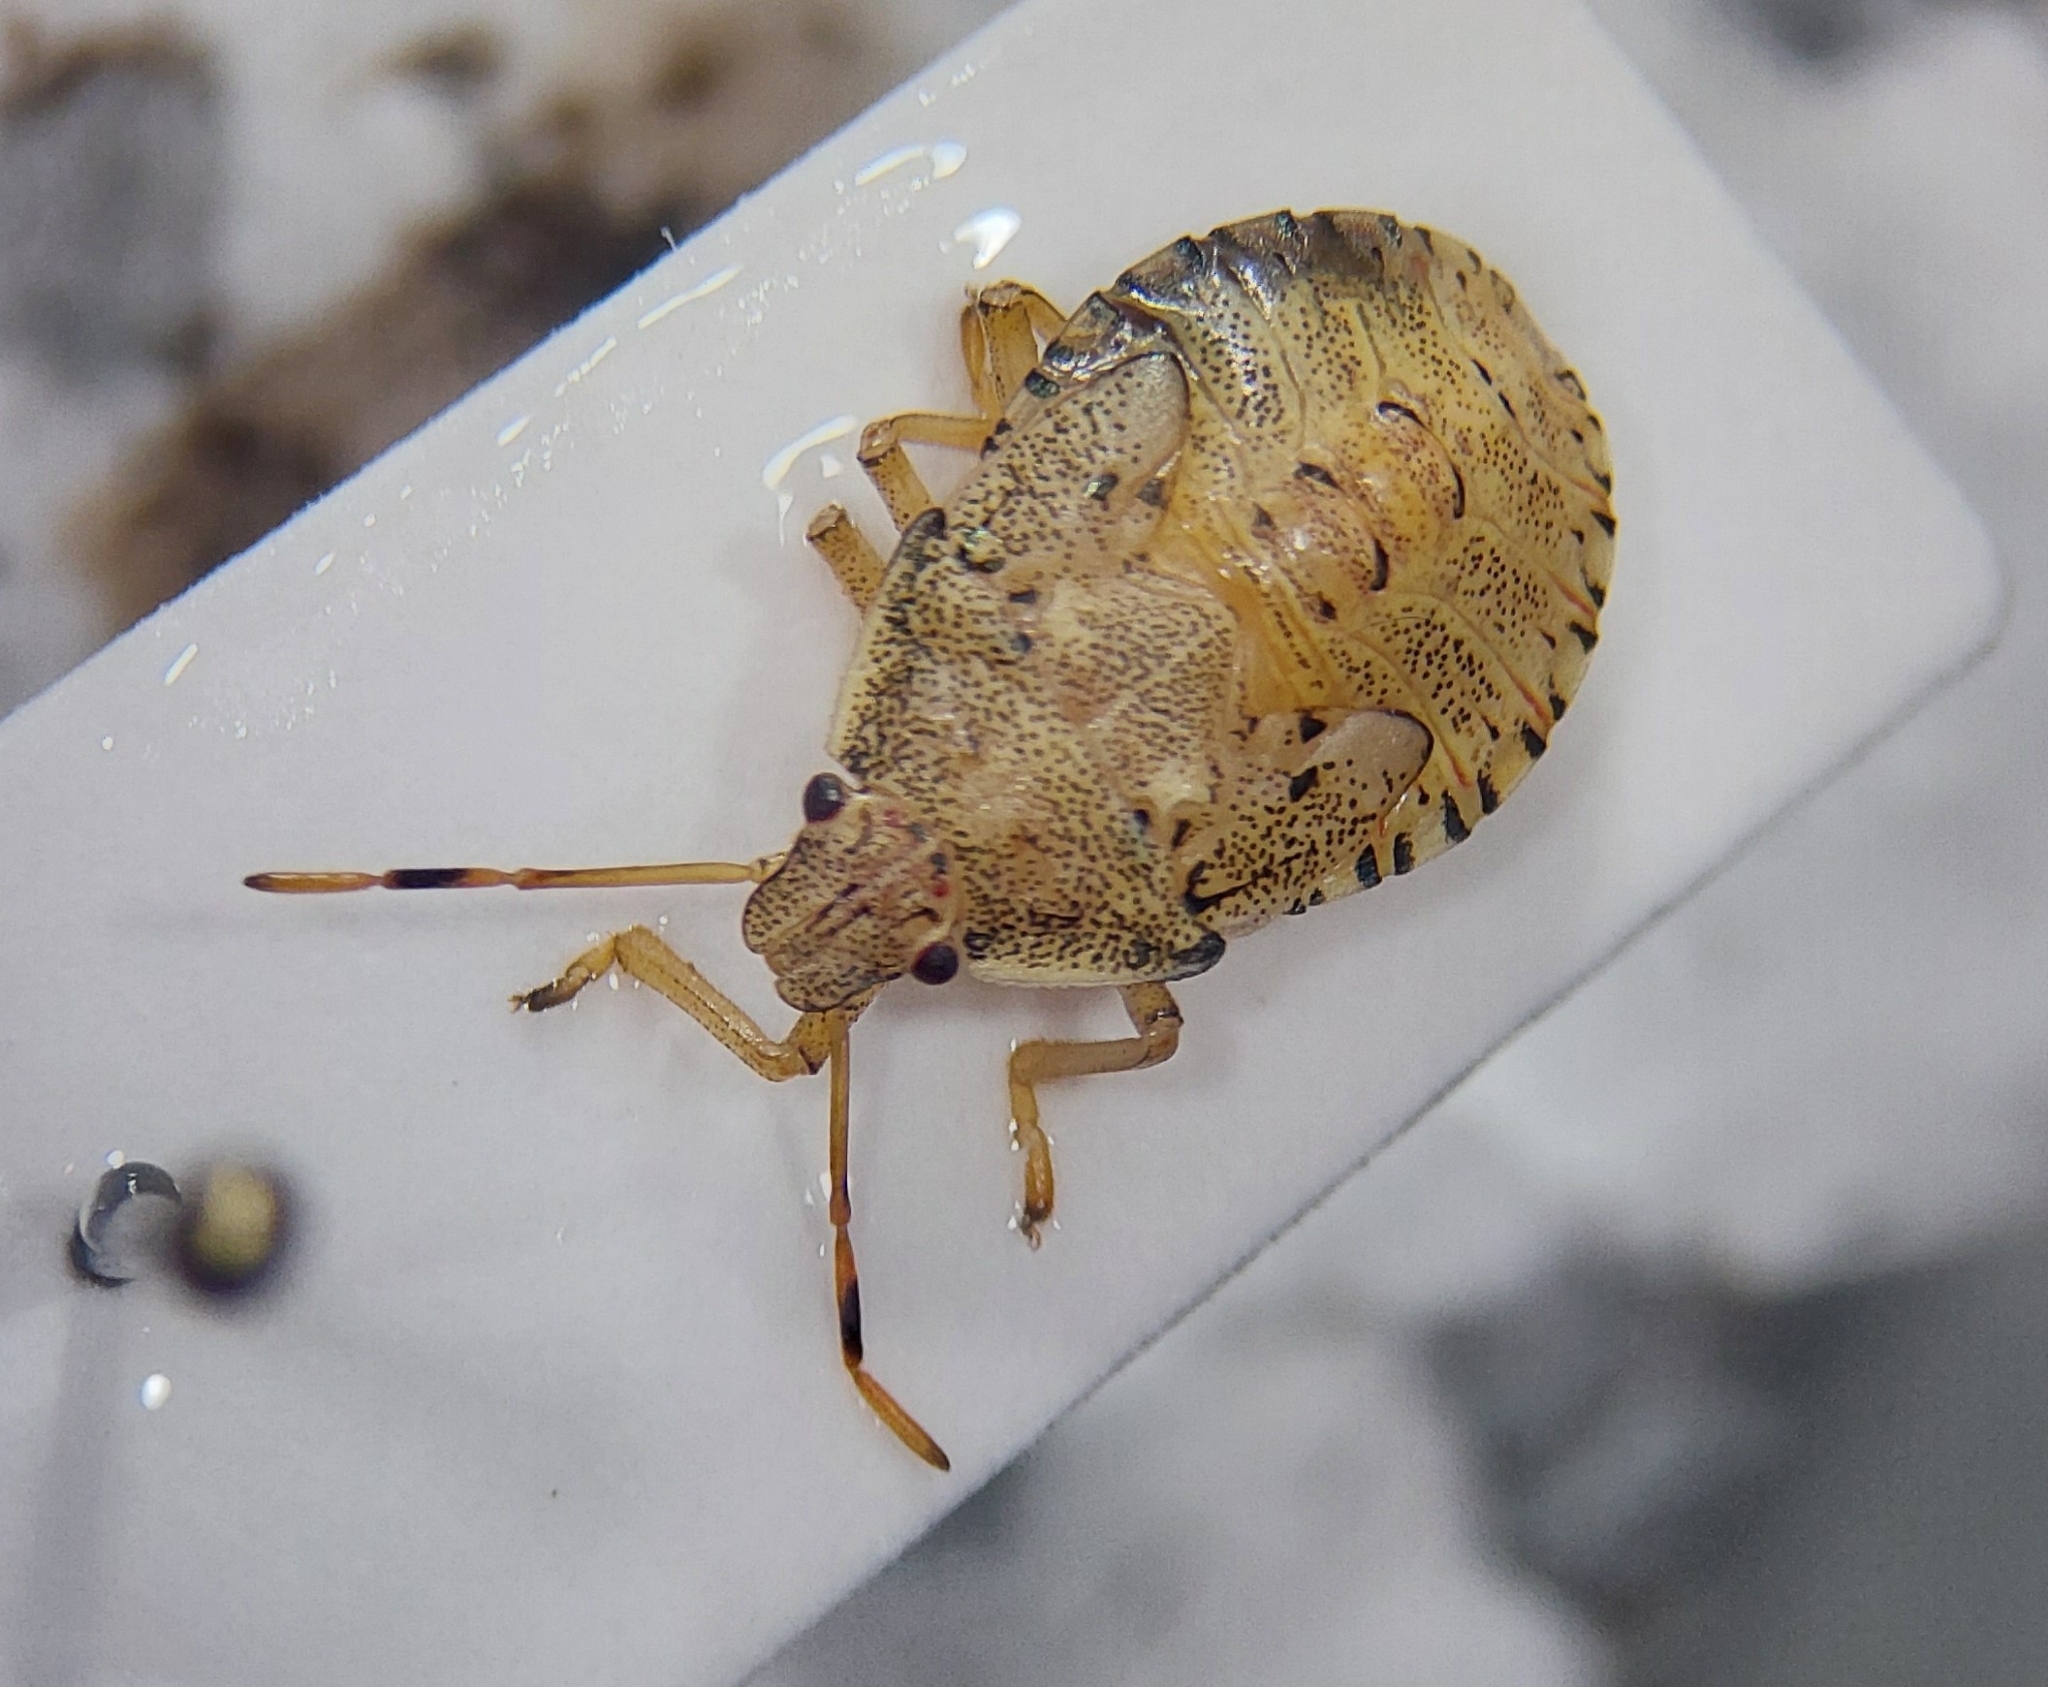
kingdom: Animalia
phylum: Arthropoda
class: Insecta
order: Hemiptera
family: Pentatomidae
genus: Arma
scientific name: Arma custos
